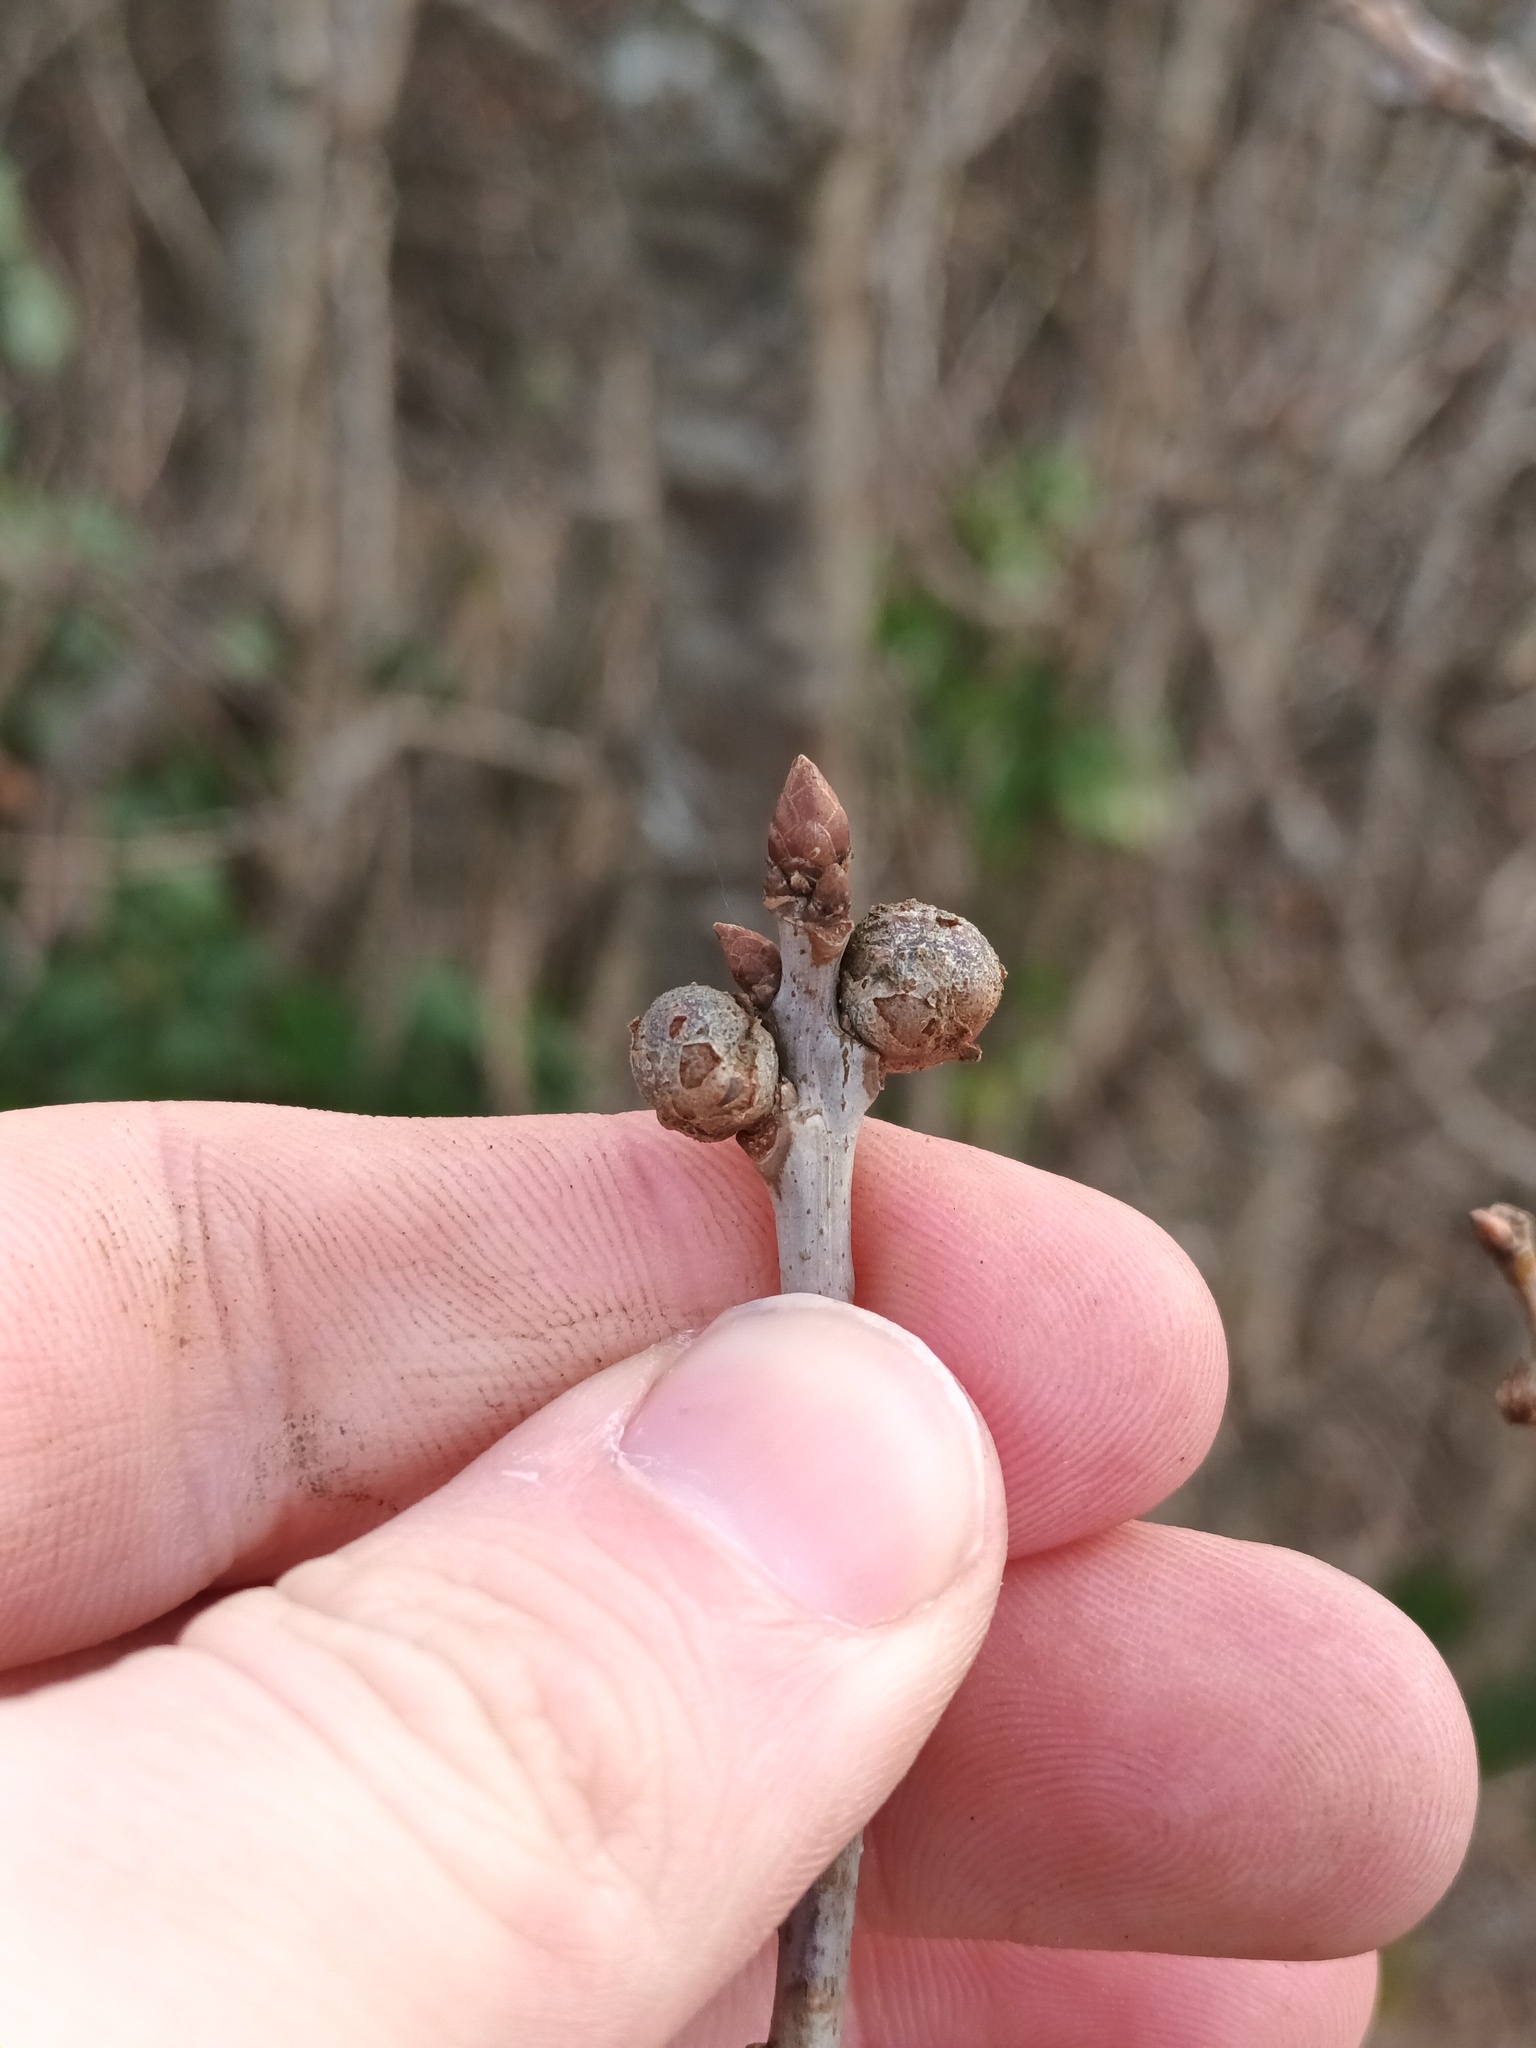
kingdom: Animalia
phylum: Arthropoda
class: Insecta
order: Hymenoptera
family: Cynipidae
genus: Andricus
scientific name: Andricus lignicolus
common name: Cola-nut gall
